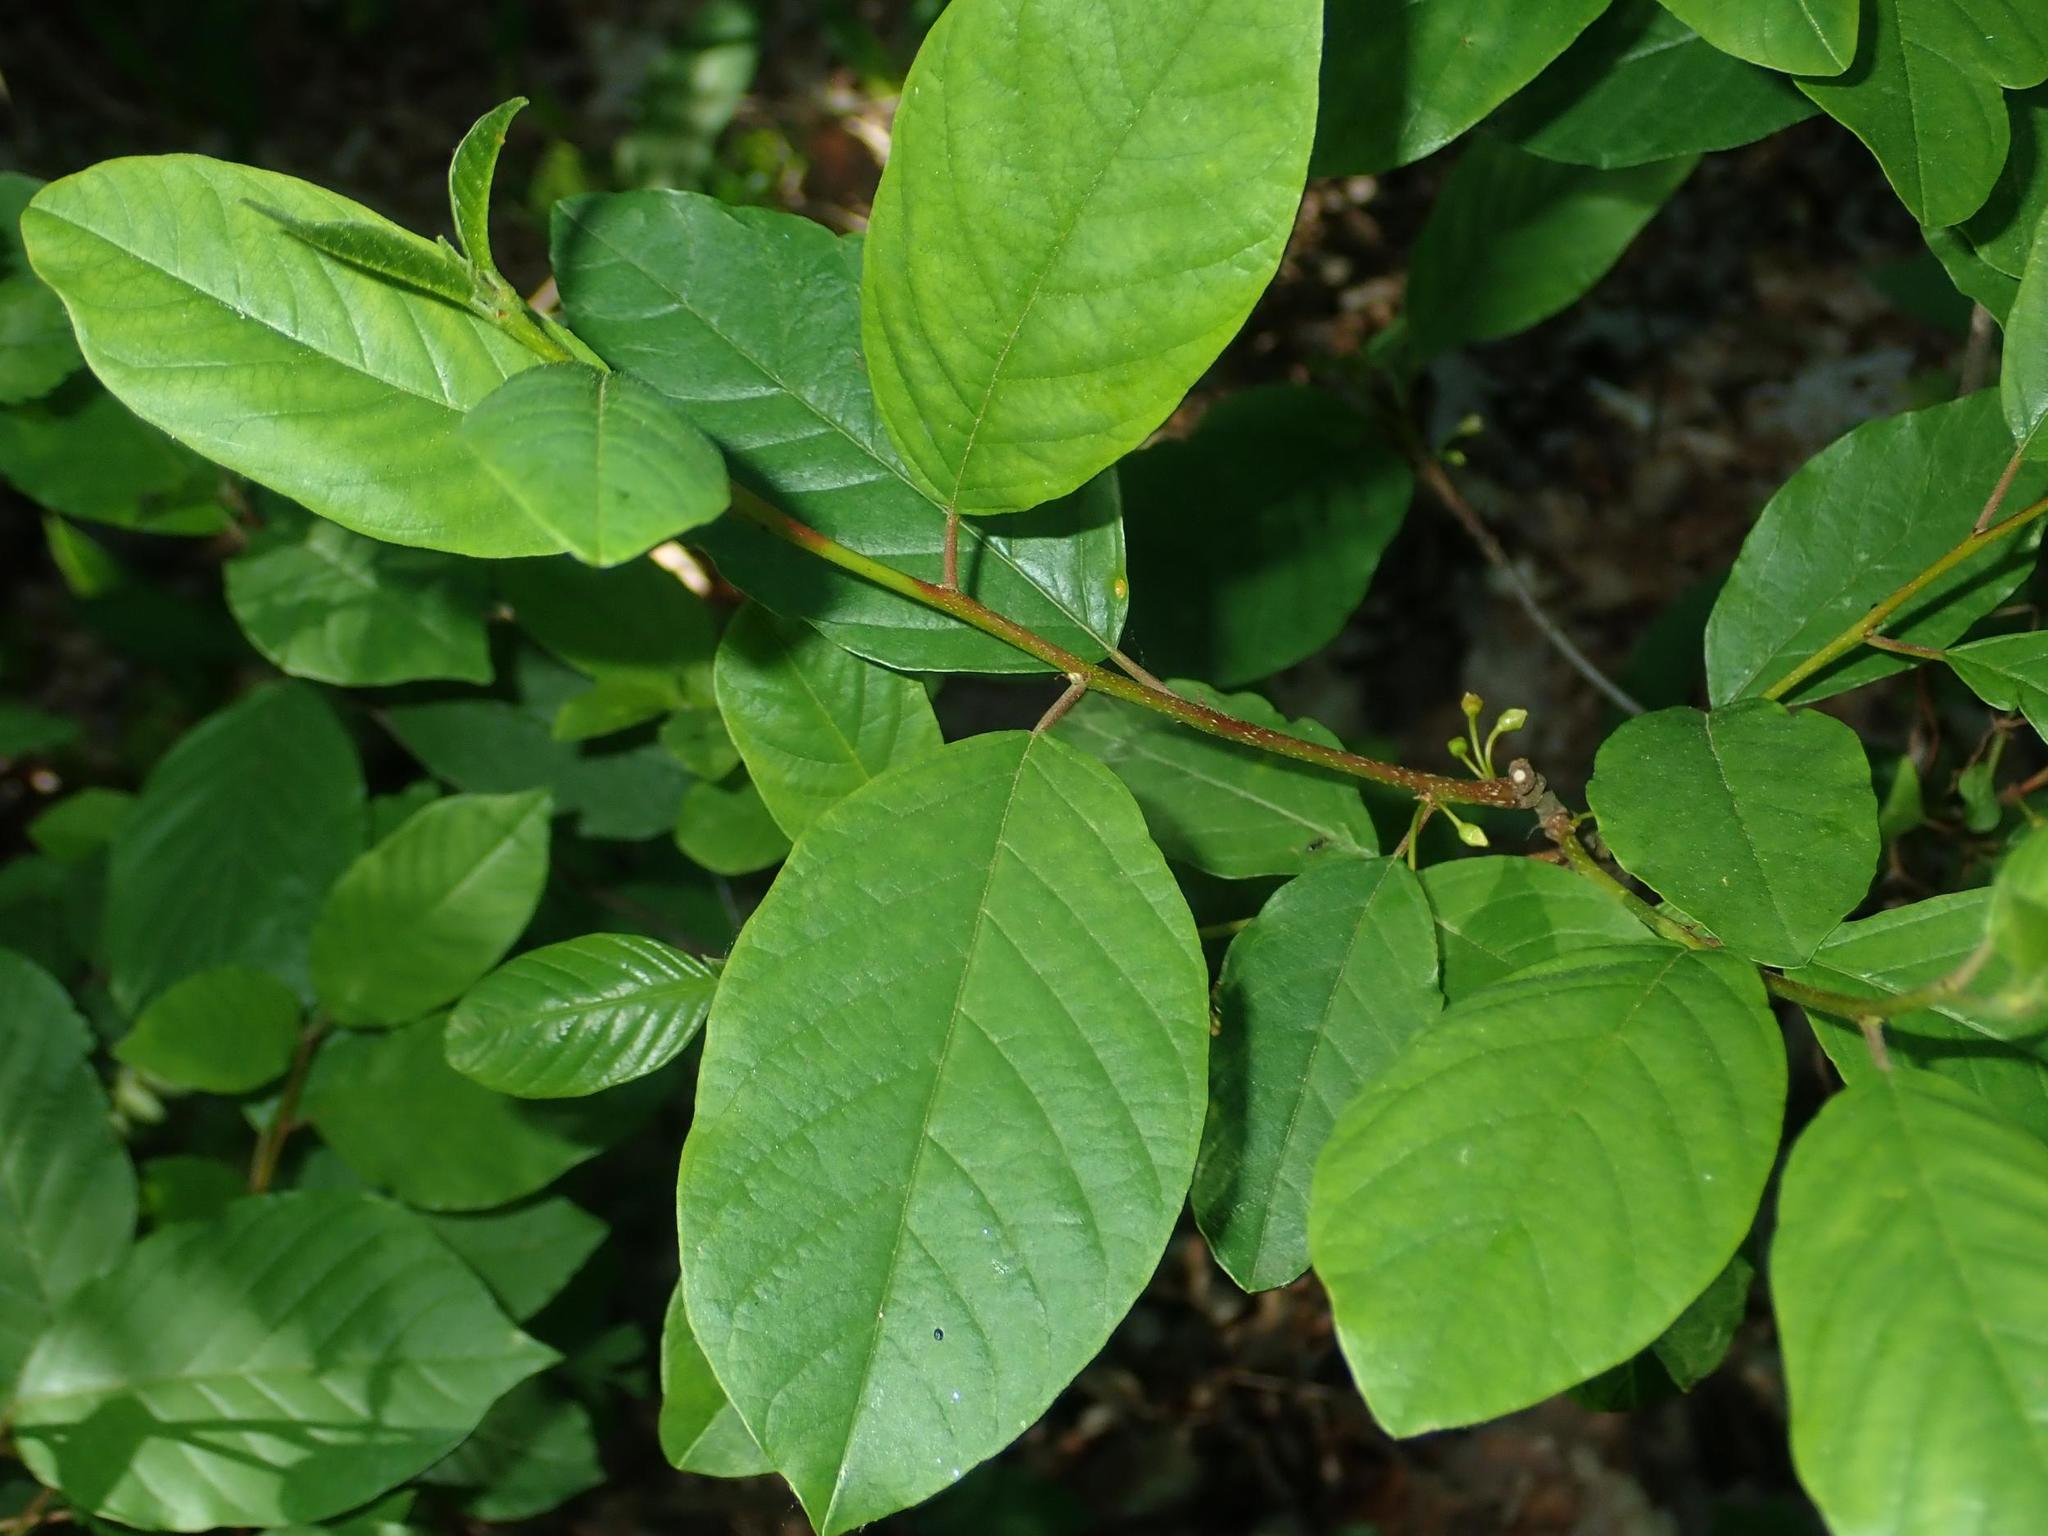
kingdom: Plantae
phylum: Tracheophyta
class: Magnoliopsida
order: Rosales
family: Rhamnaceae
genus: Frangula
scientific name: Frangula alnus
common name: Alder buckthorn
